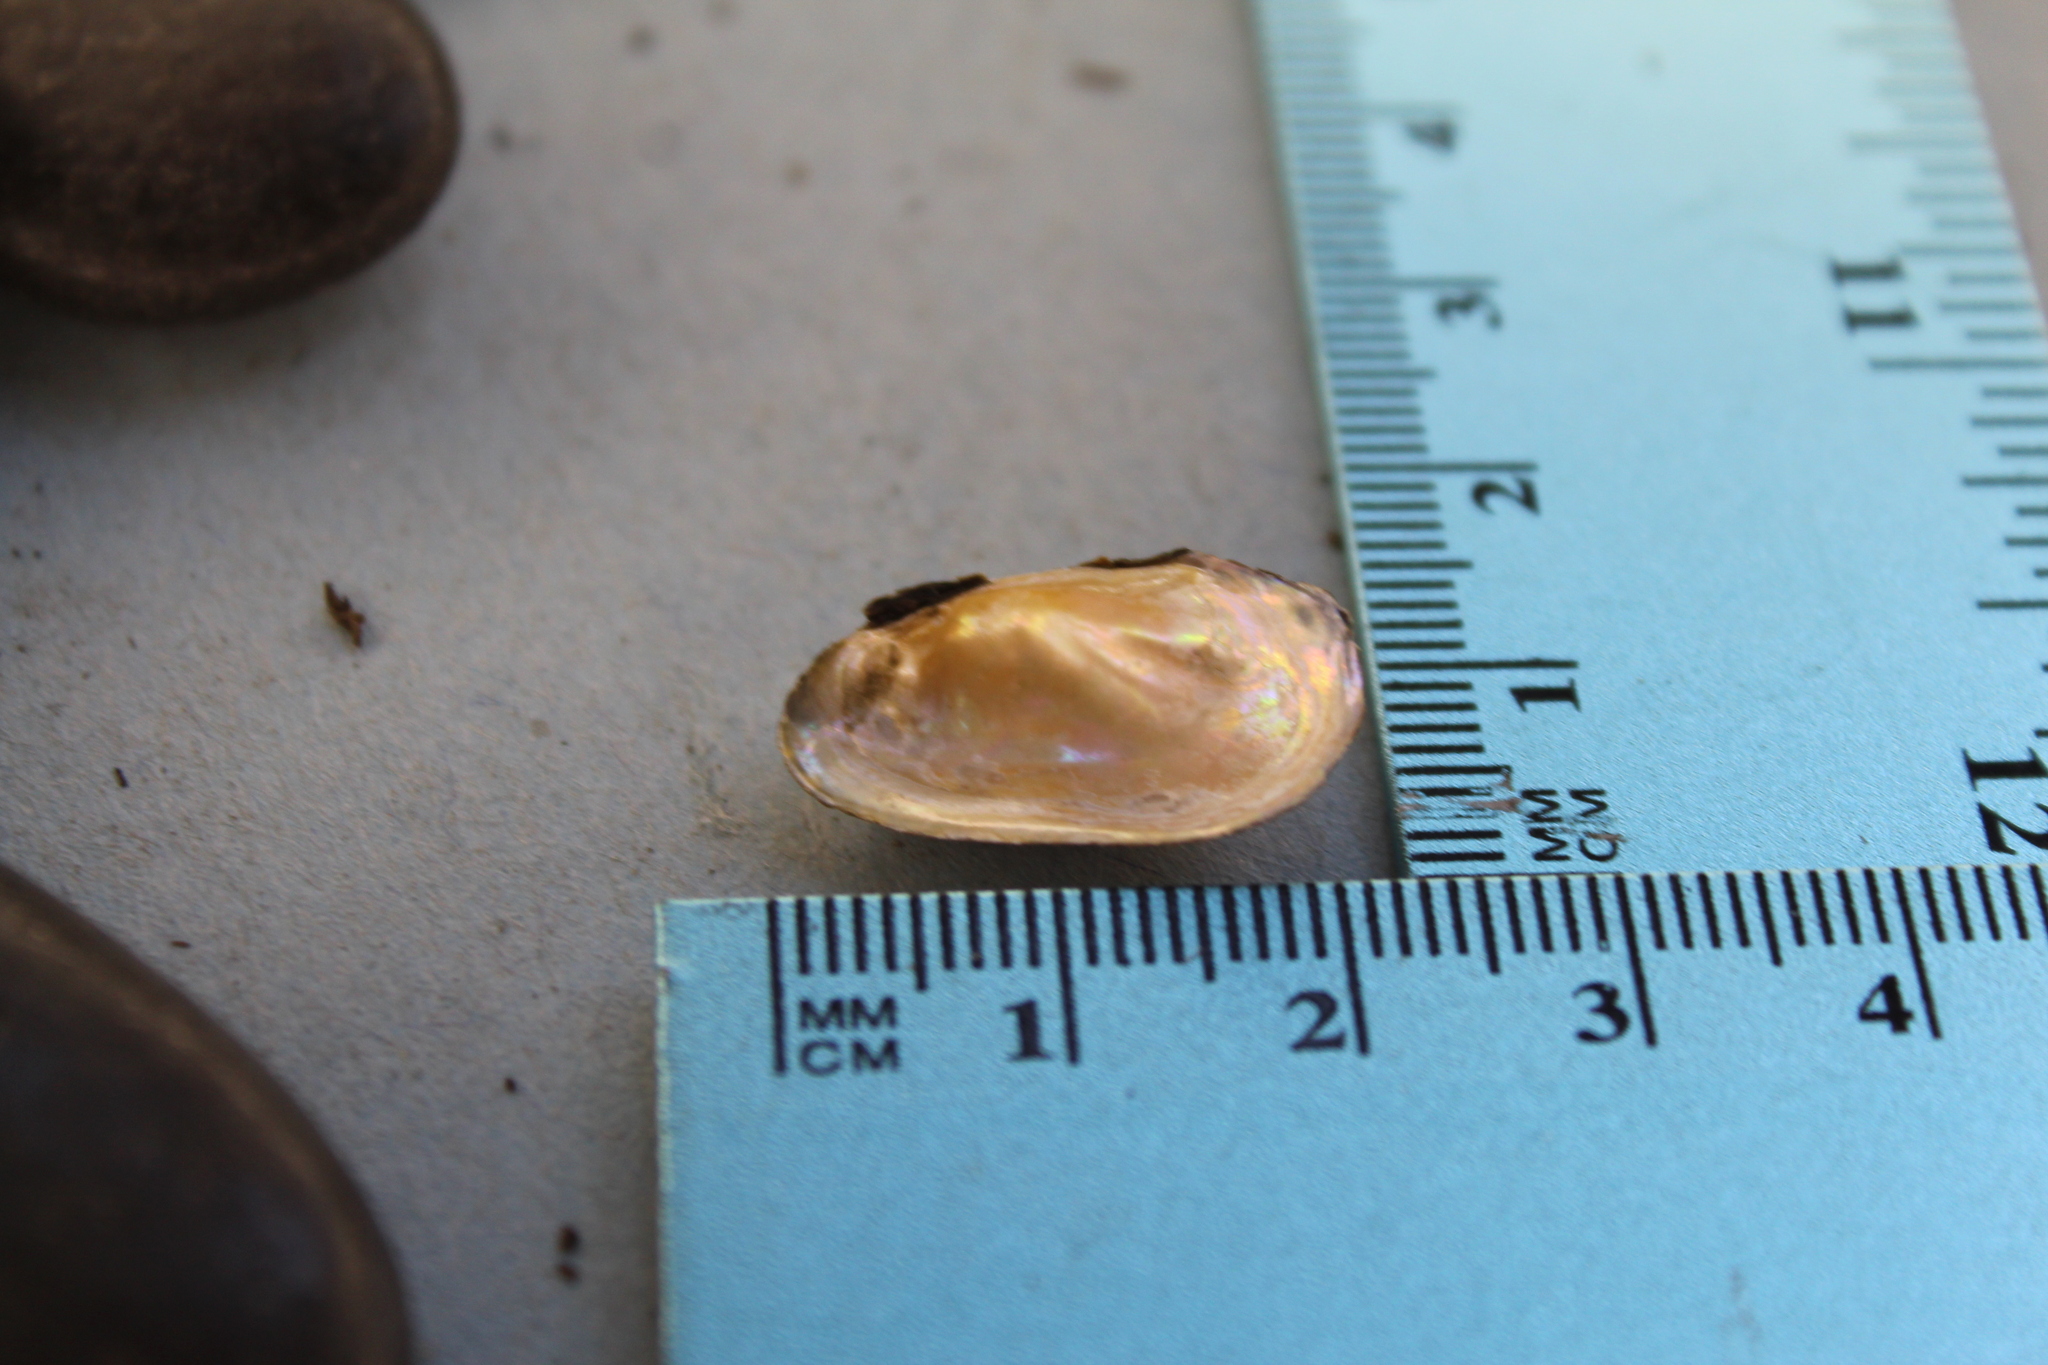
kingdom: Animalia
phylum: Mollusca
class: Bivalvia
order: Unionida
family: Unionidae
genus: Toxolasma
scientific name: Toxolasma parvum
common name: Lilliput
